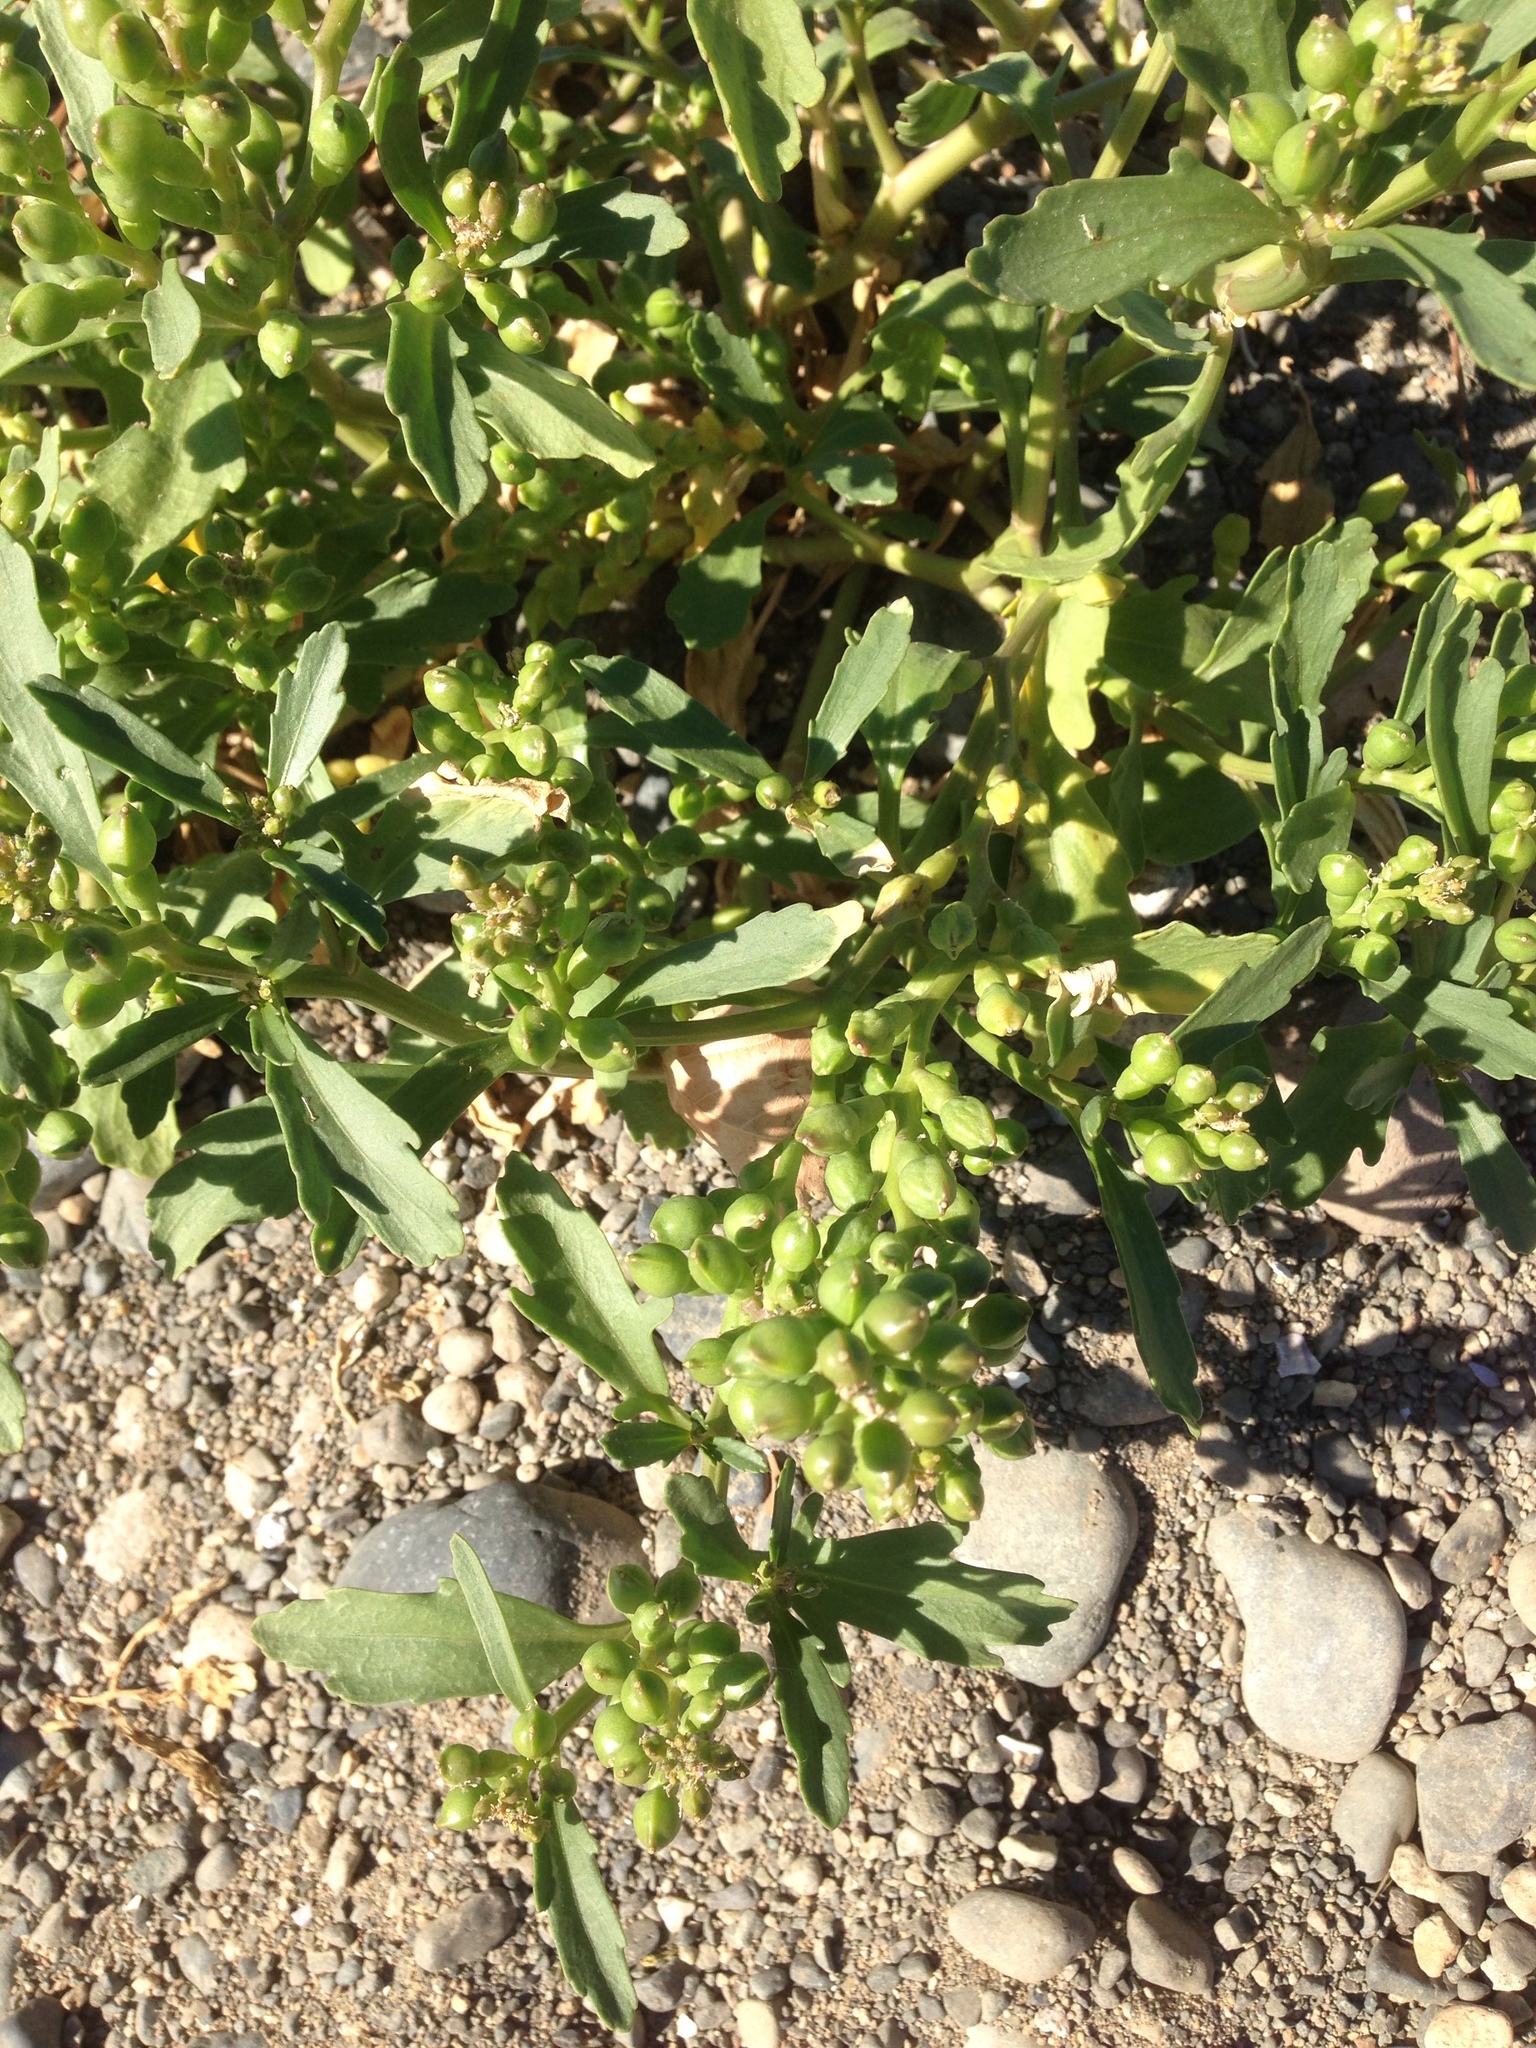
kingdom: Plantae
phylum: Tracheophyta
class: Magnoliopsida
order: Brassicales
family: Brassicaceae
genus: Cakile
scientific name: Cakile edentula
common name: American sea rocket
